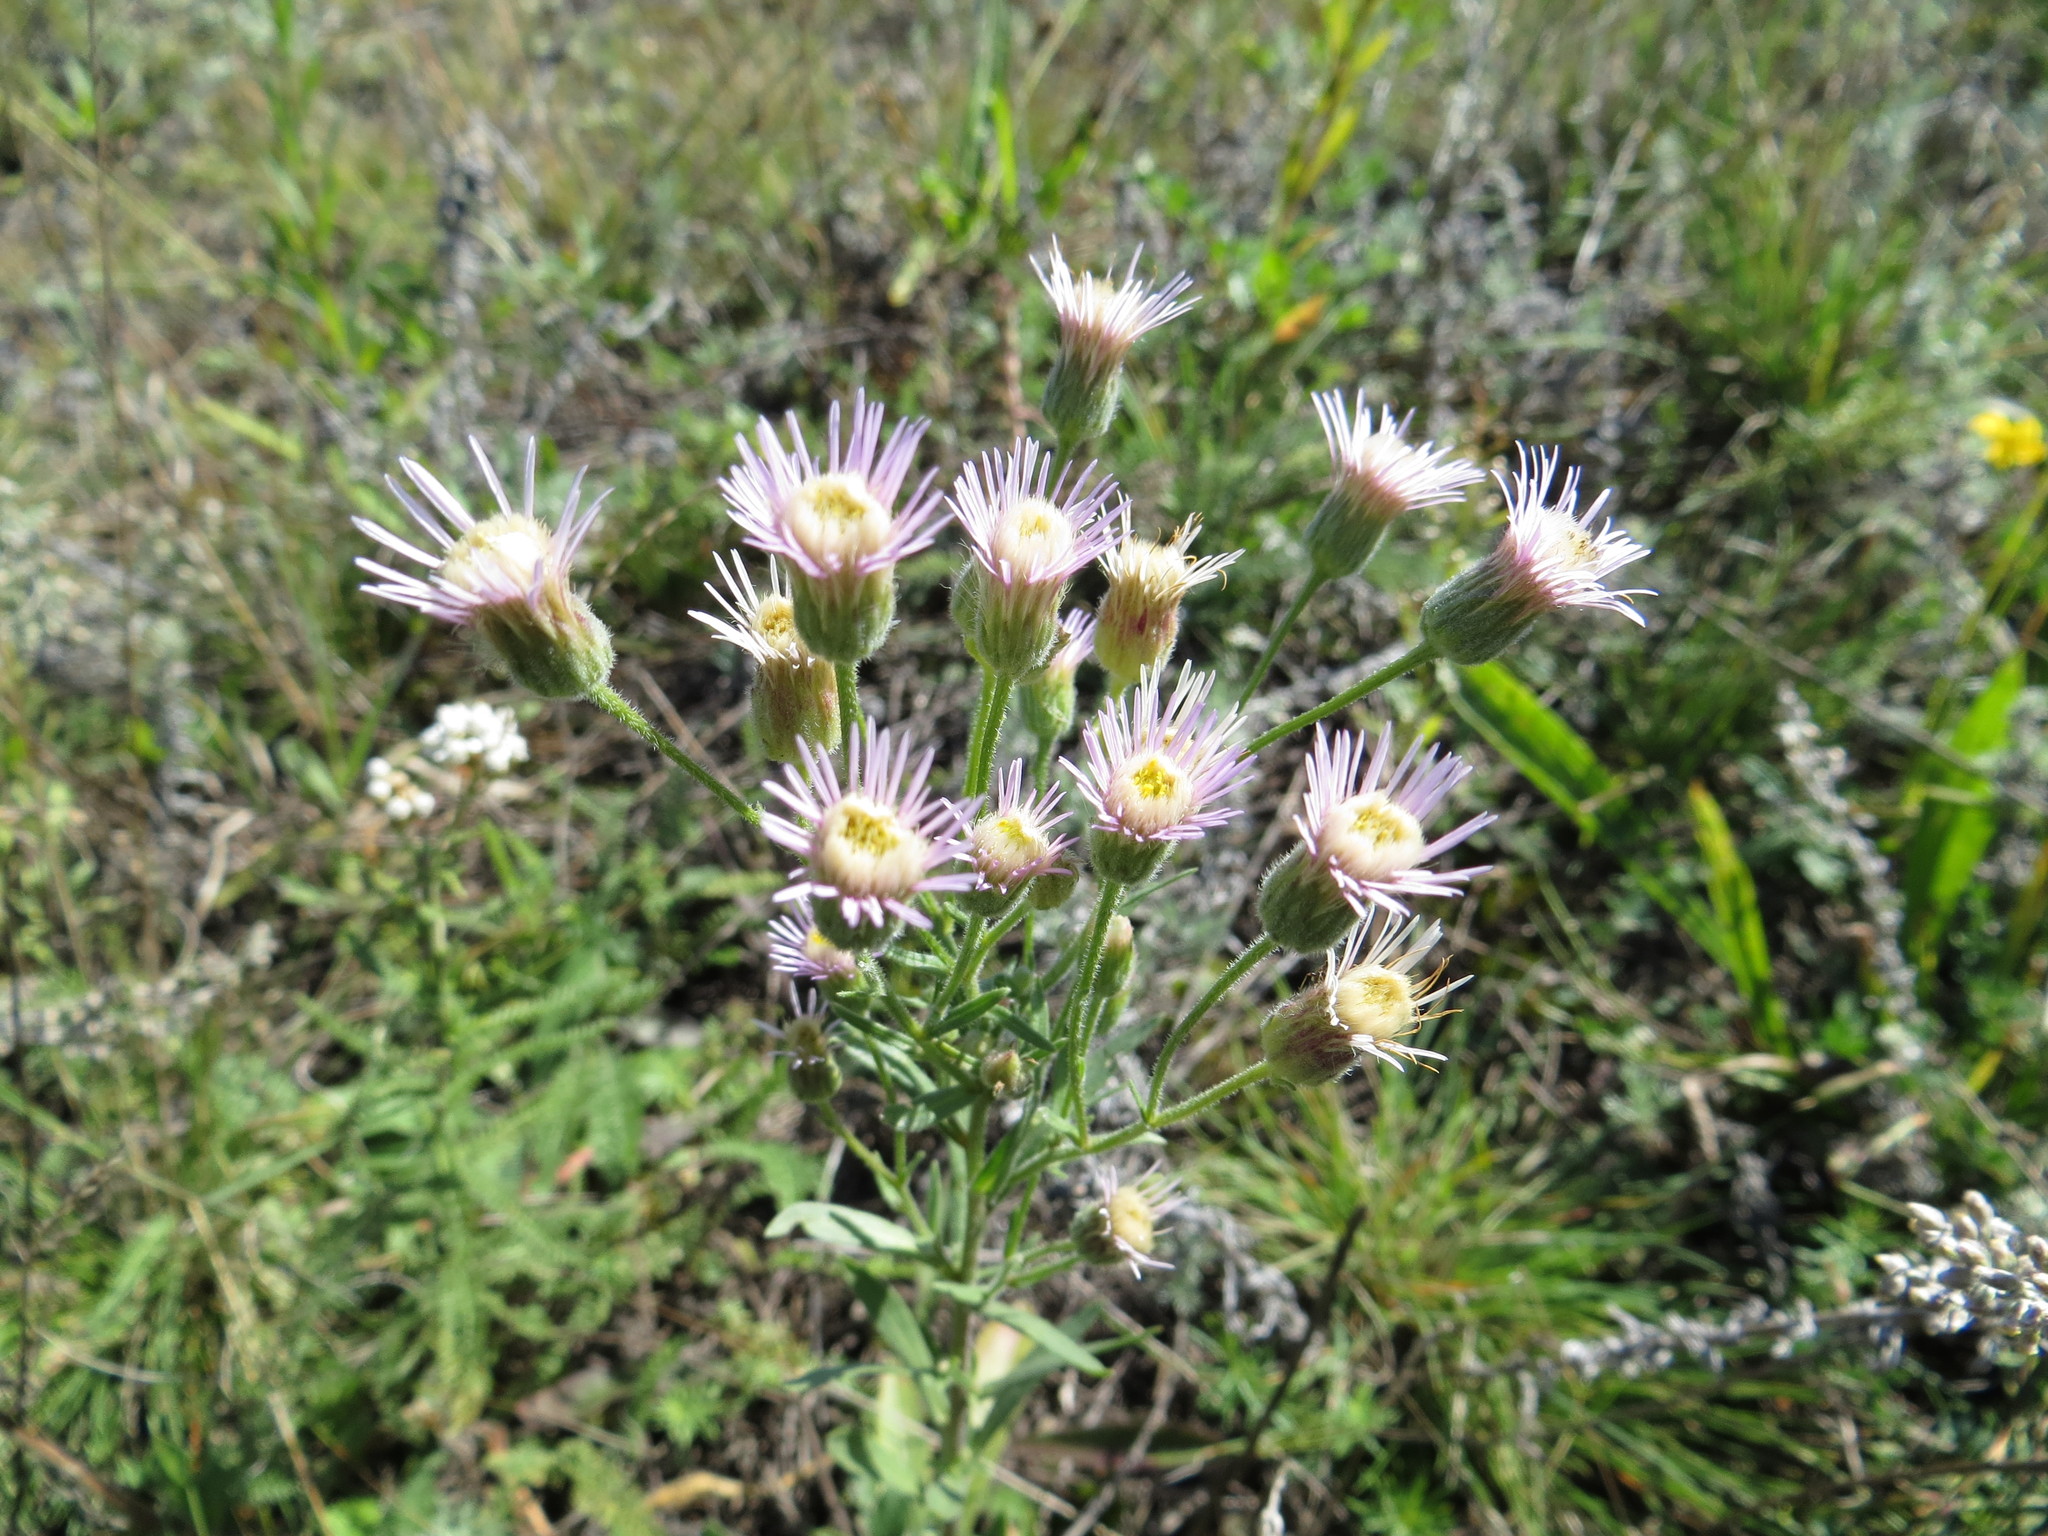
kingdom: Plantae
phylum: Tracheophyta
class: Magnoliopsida
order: Asterales
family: Asteraceae
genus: Erigeron
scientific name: Erigeron acris
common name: Blue fleabane
